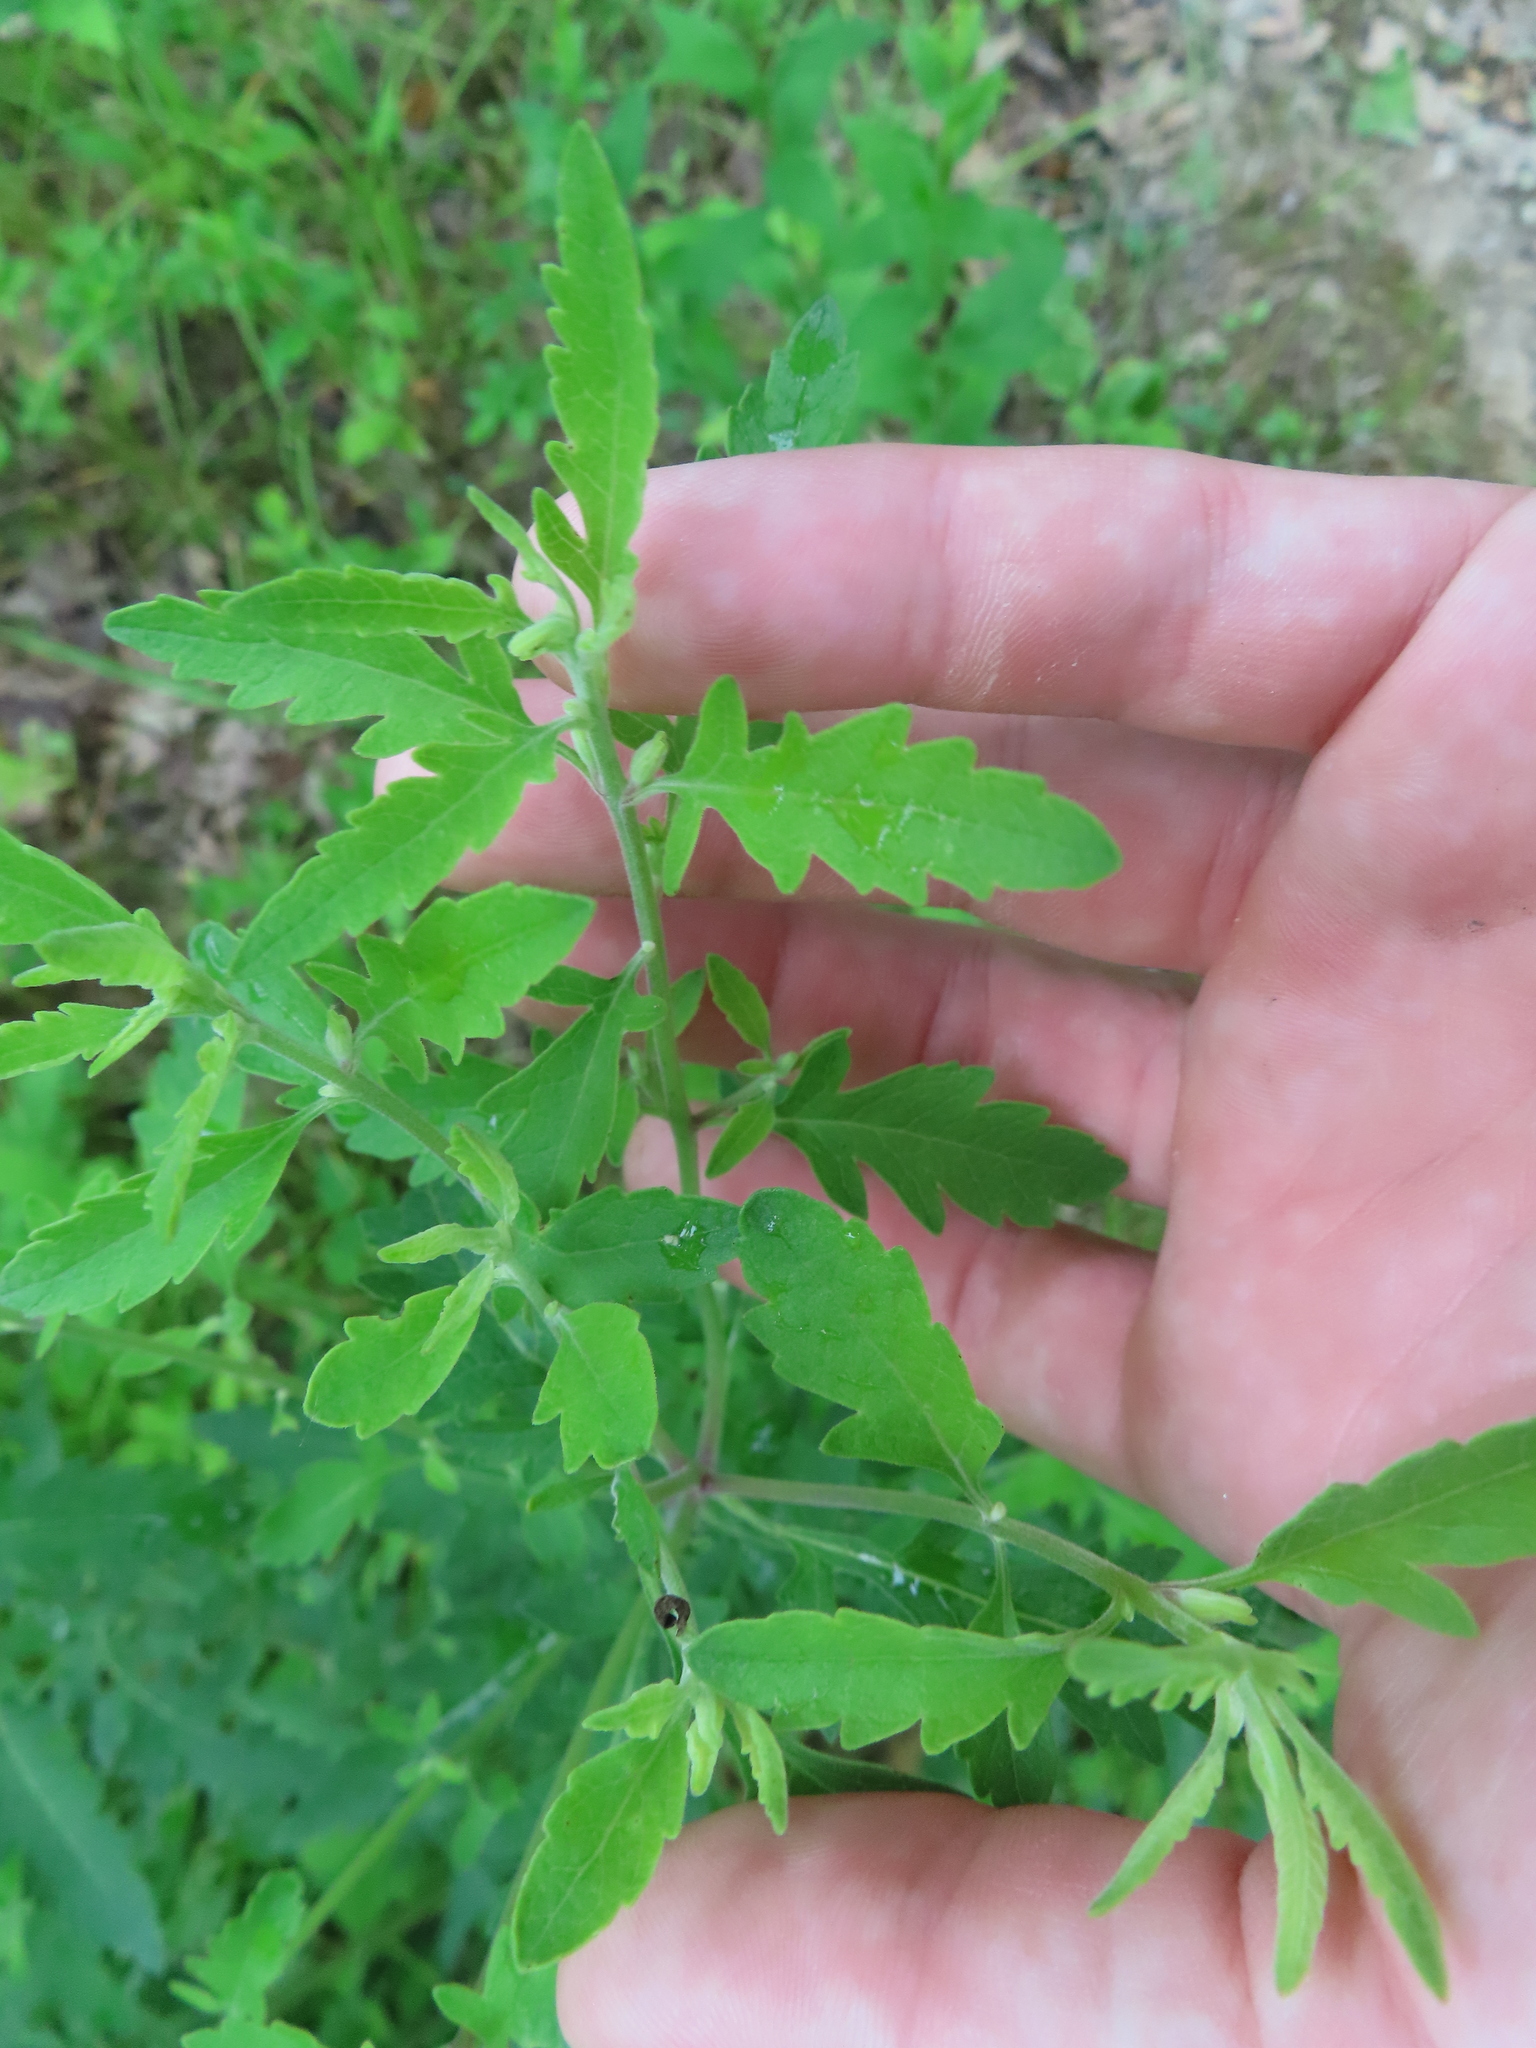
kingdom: Plantae
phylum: Tracheophyta
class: Magnoliopsida
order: Lamiales
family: Orobanchaceae
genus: Aureolaria
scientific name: Aureolaria grandiflora
